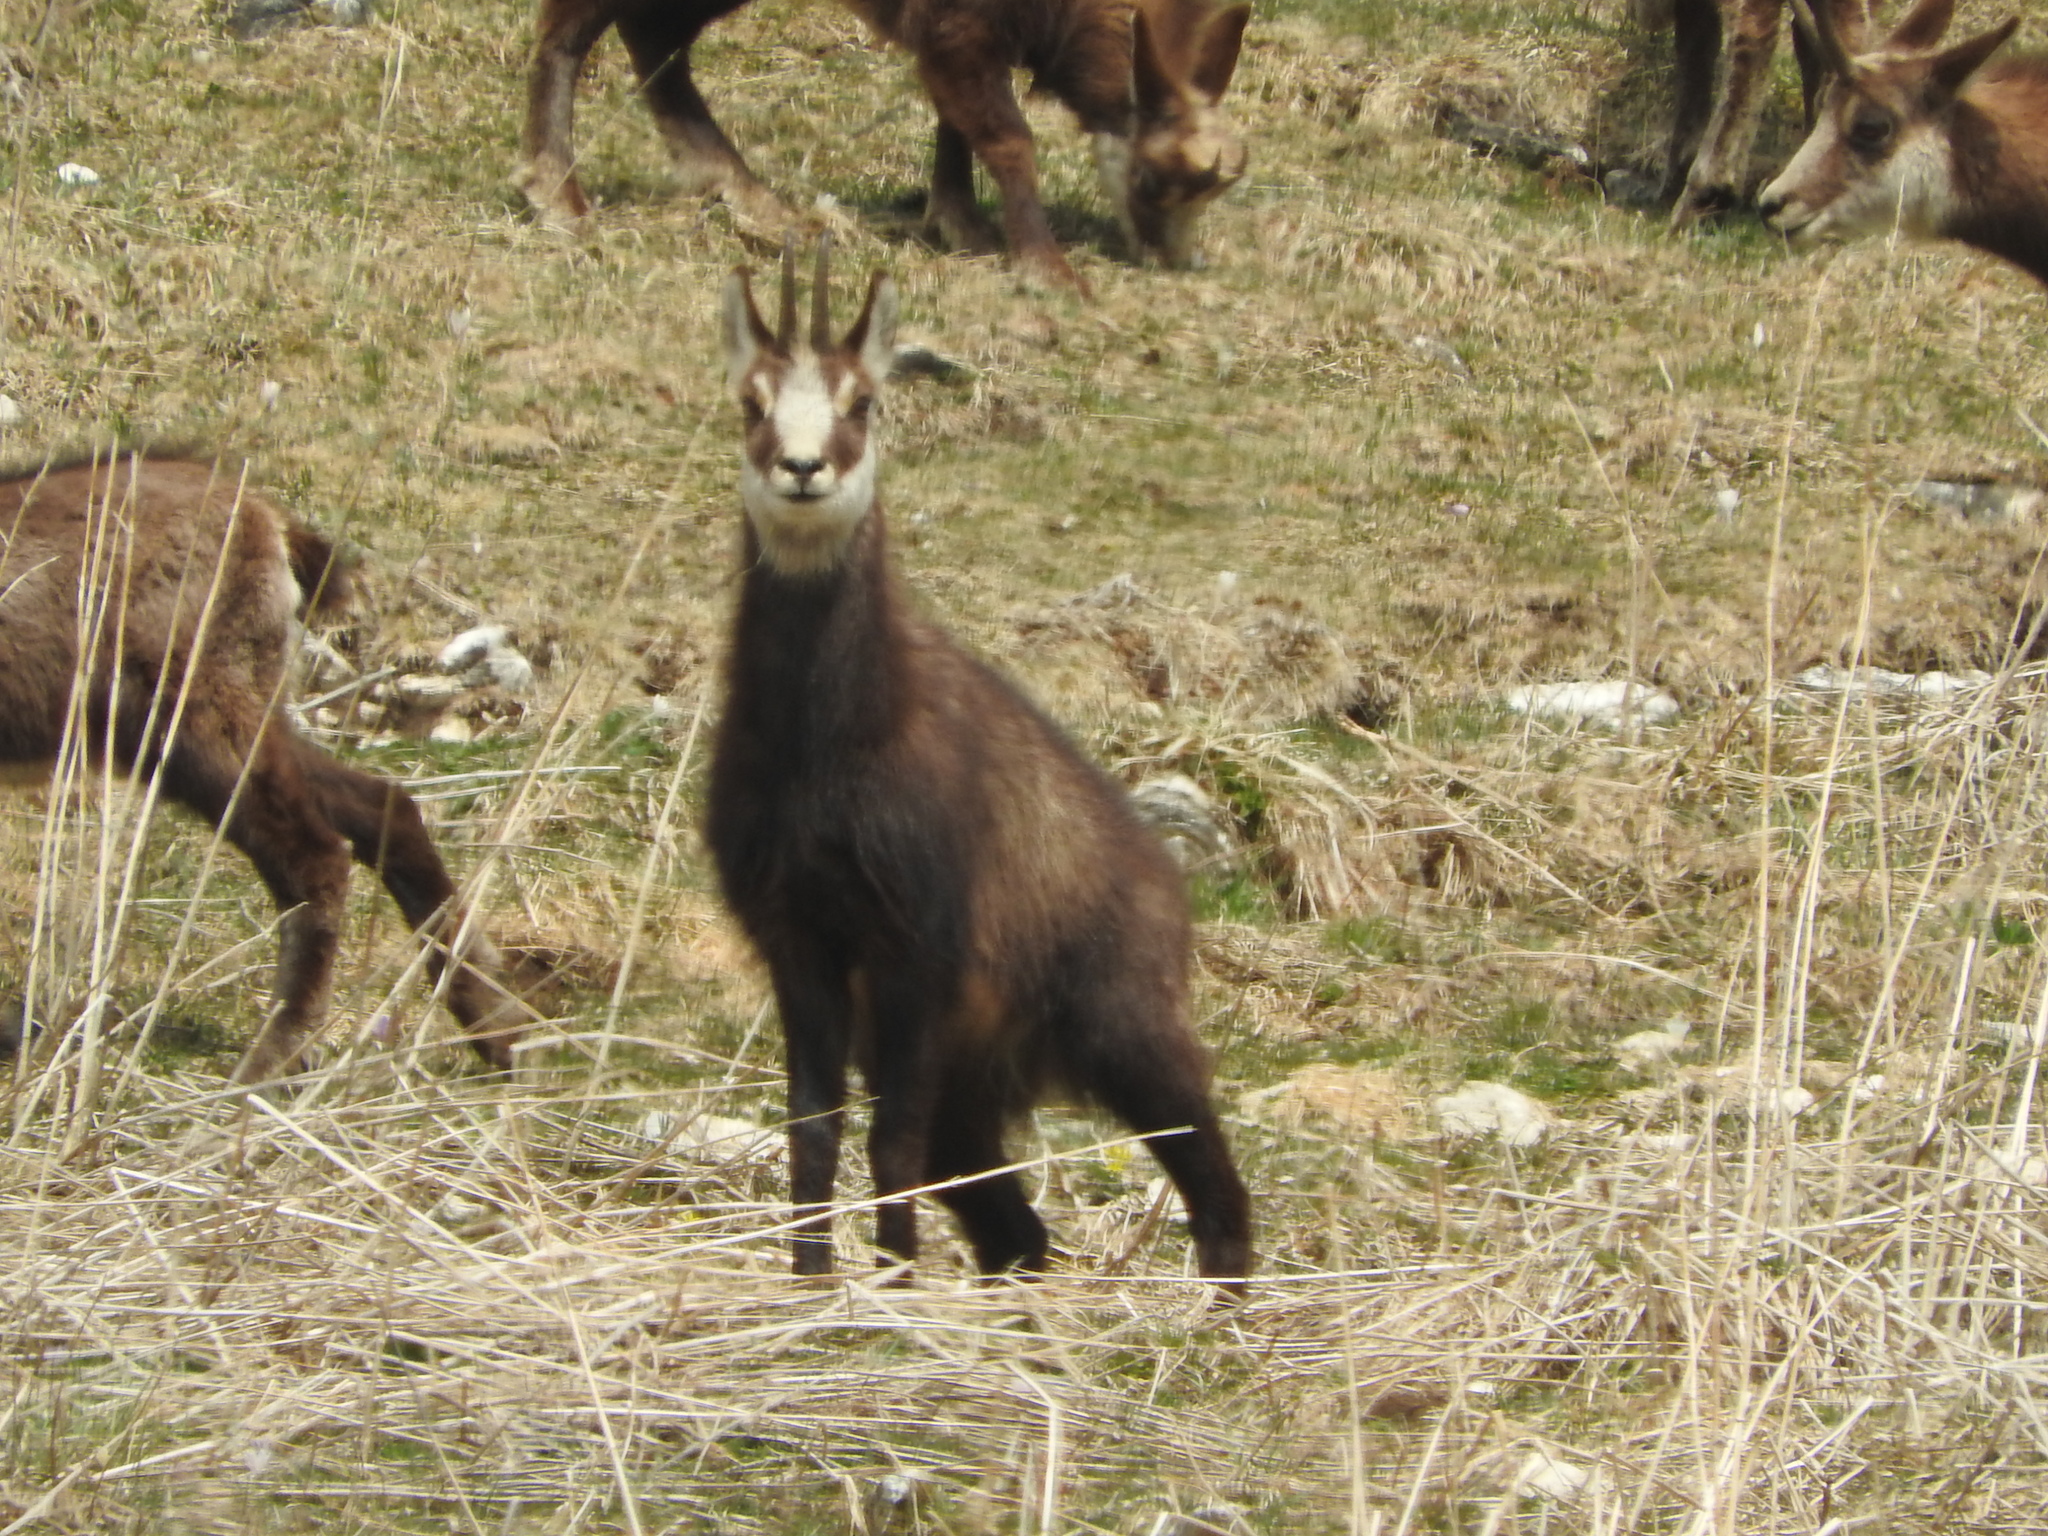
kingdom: Animalia
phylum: Chordata
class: Mammalia
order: Artiodactyla
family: Bovidae
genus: Rupicapra
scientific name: Rupicapra rupicapra
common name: Chamois
